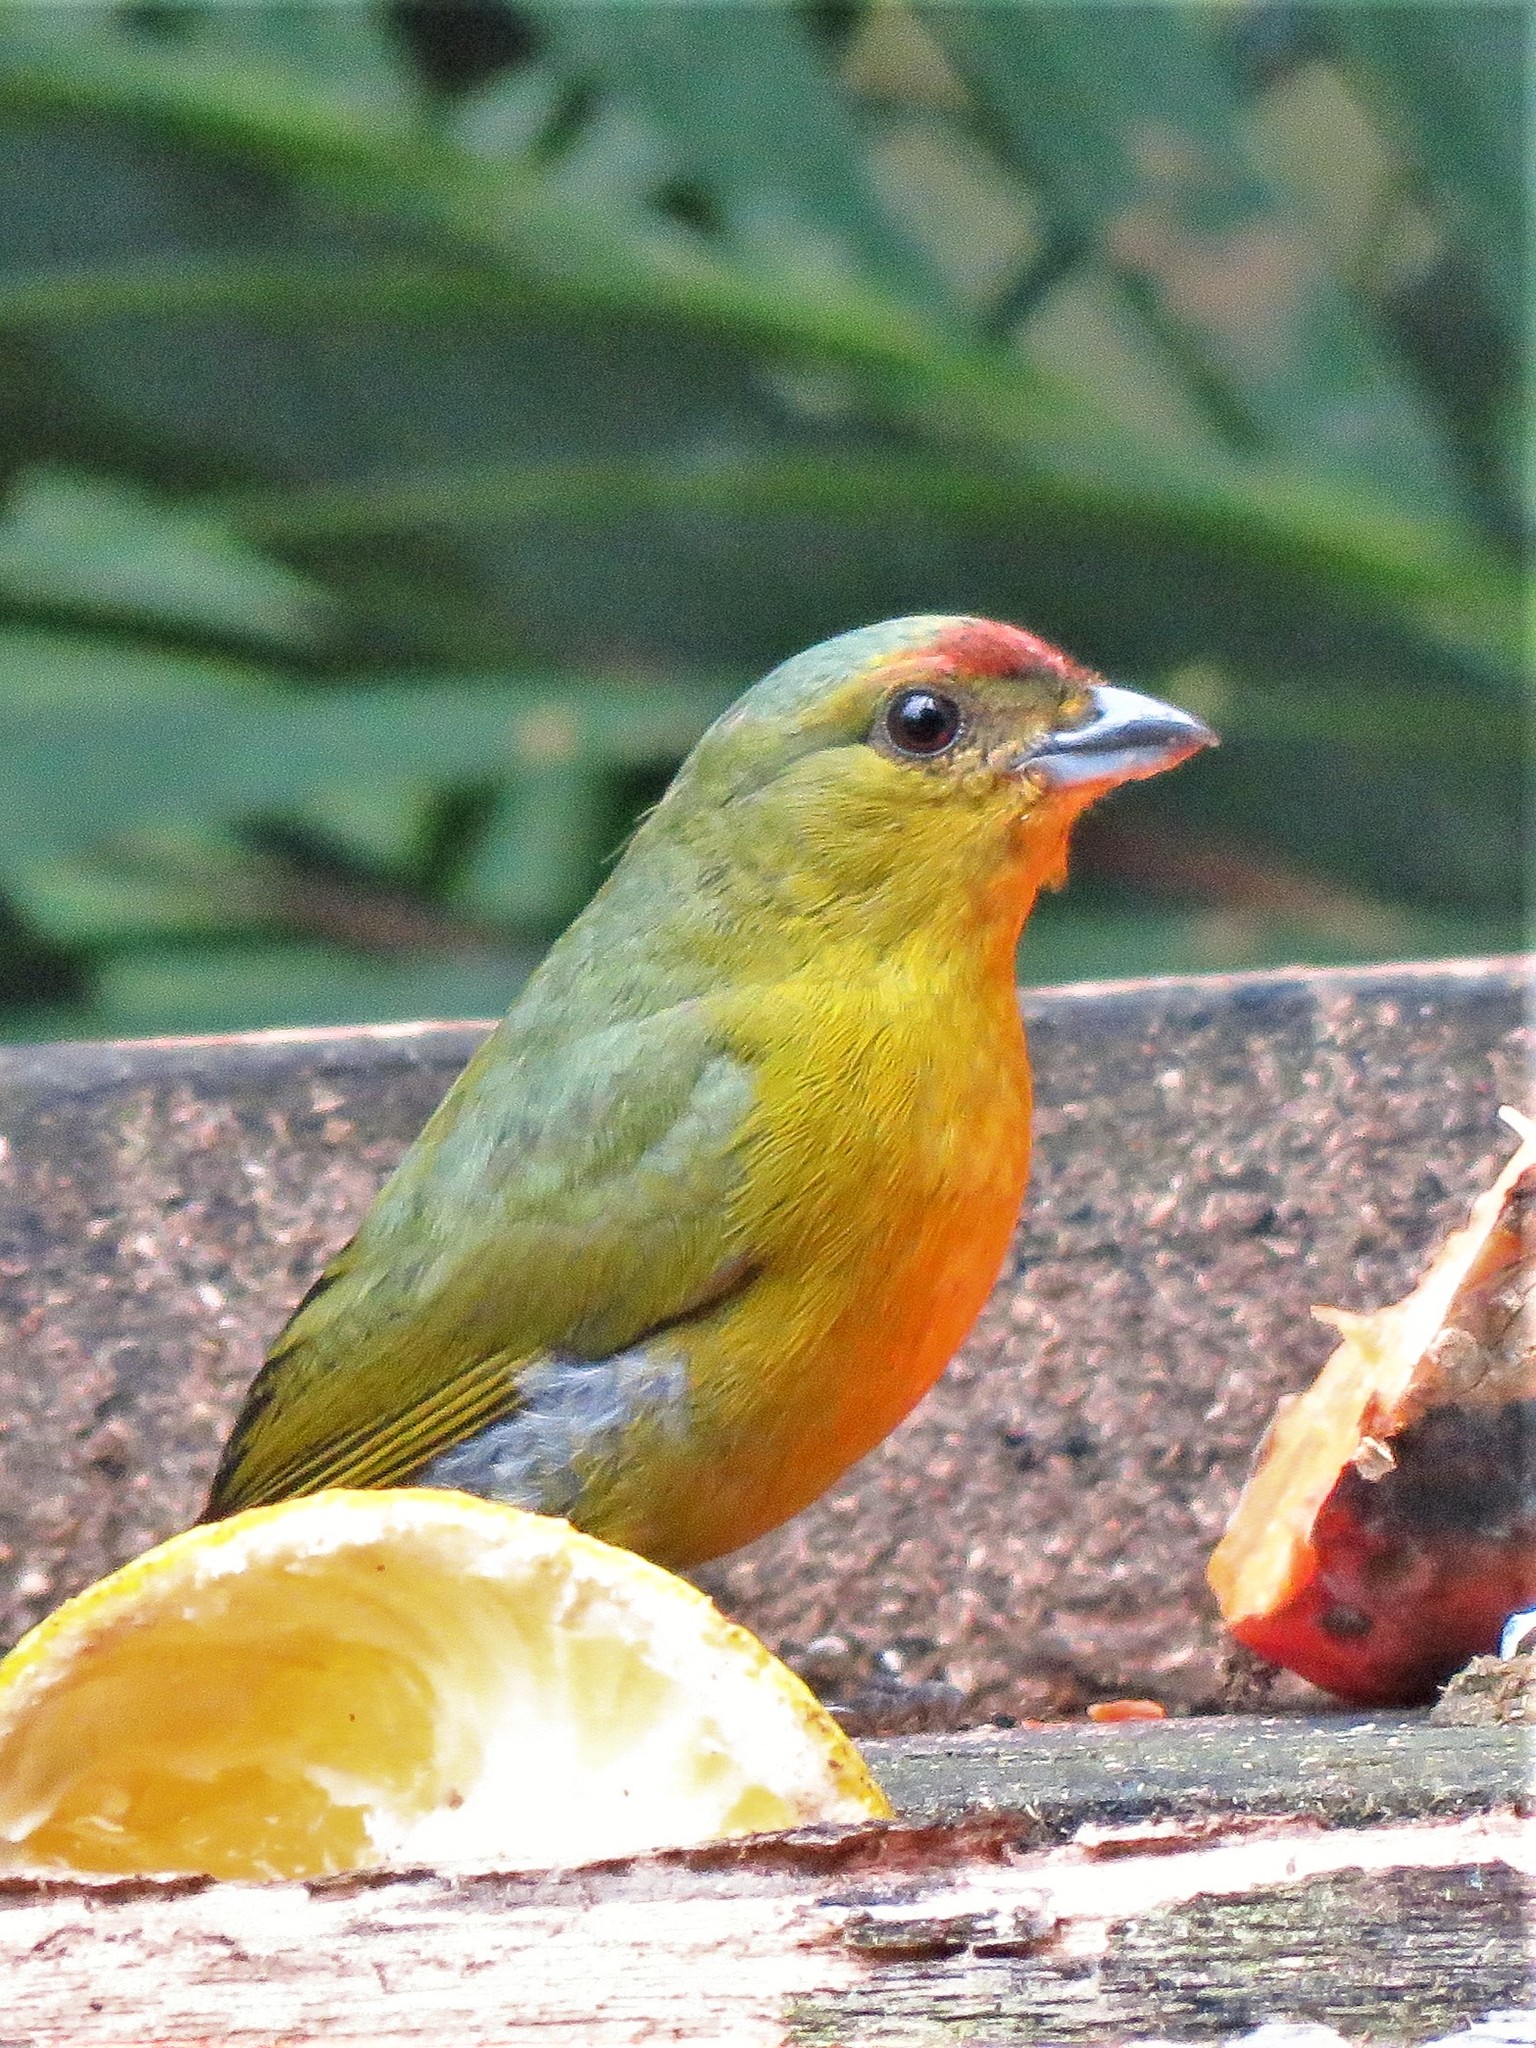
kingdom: Animalia
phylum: Chordata
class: Aves
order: Passeriformes
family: Fringillidae
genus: Euphonia
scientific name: Euphonia gouldi
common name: Olive-backed euphonia
